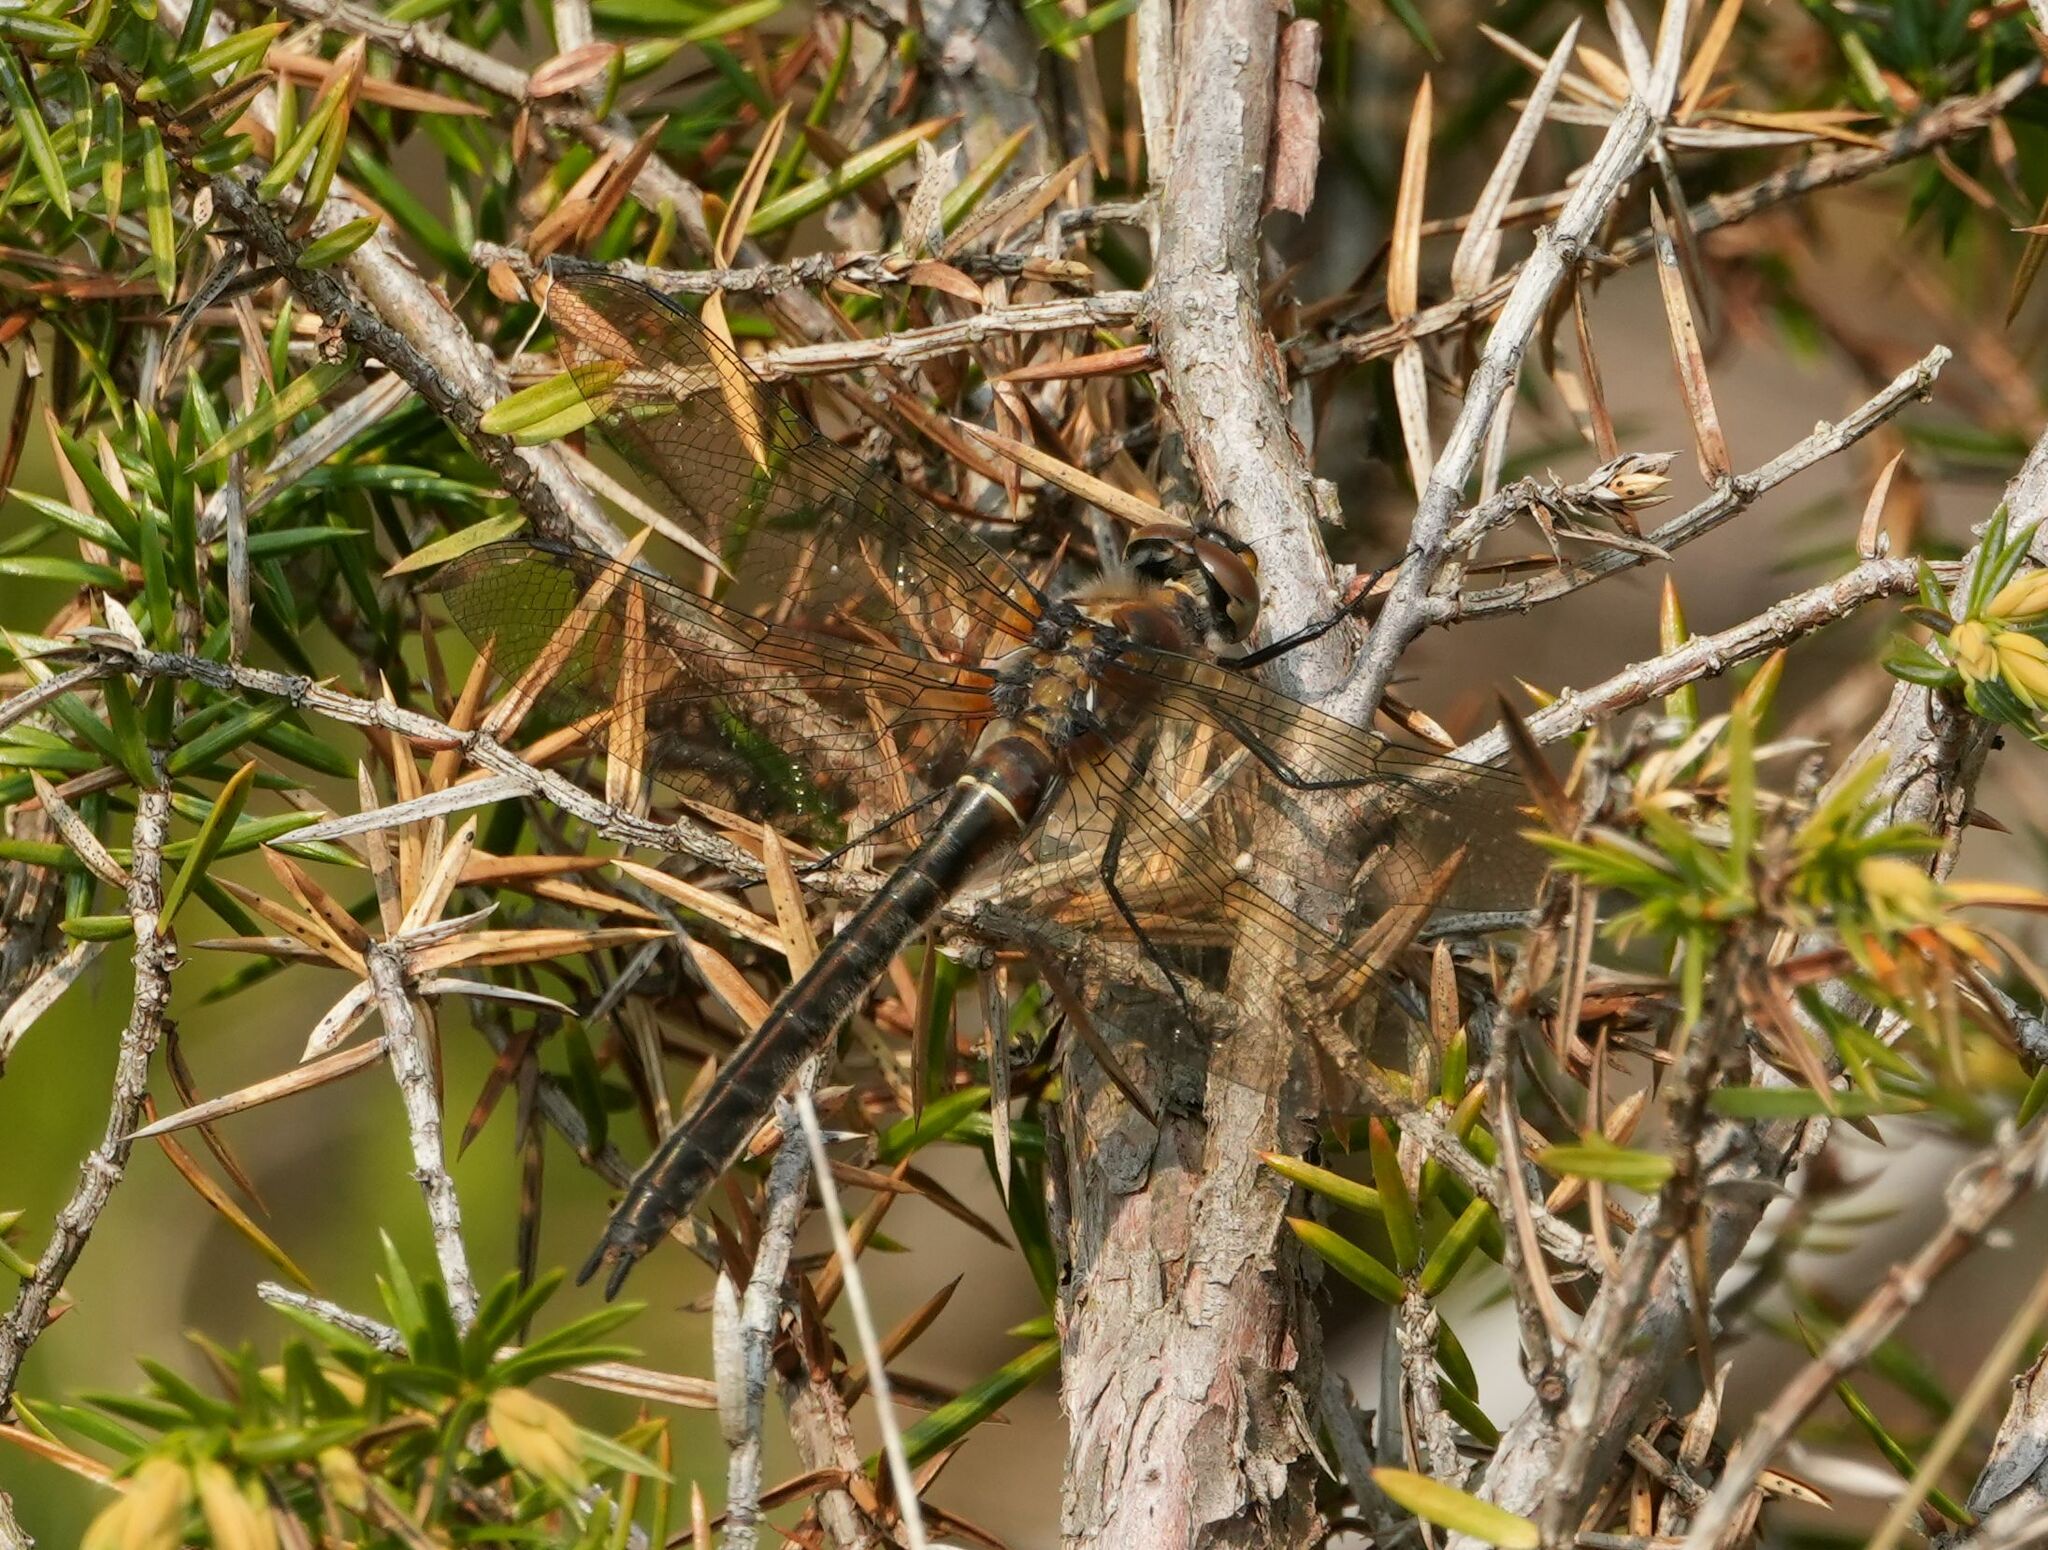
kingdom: Animalia
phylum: Arthropoda
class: Insecta
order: Odonata
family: Corduliidae
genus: Cordulia
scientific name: Cordulia shurtleffii
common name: American emerald
